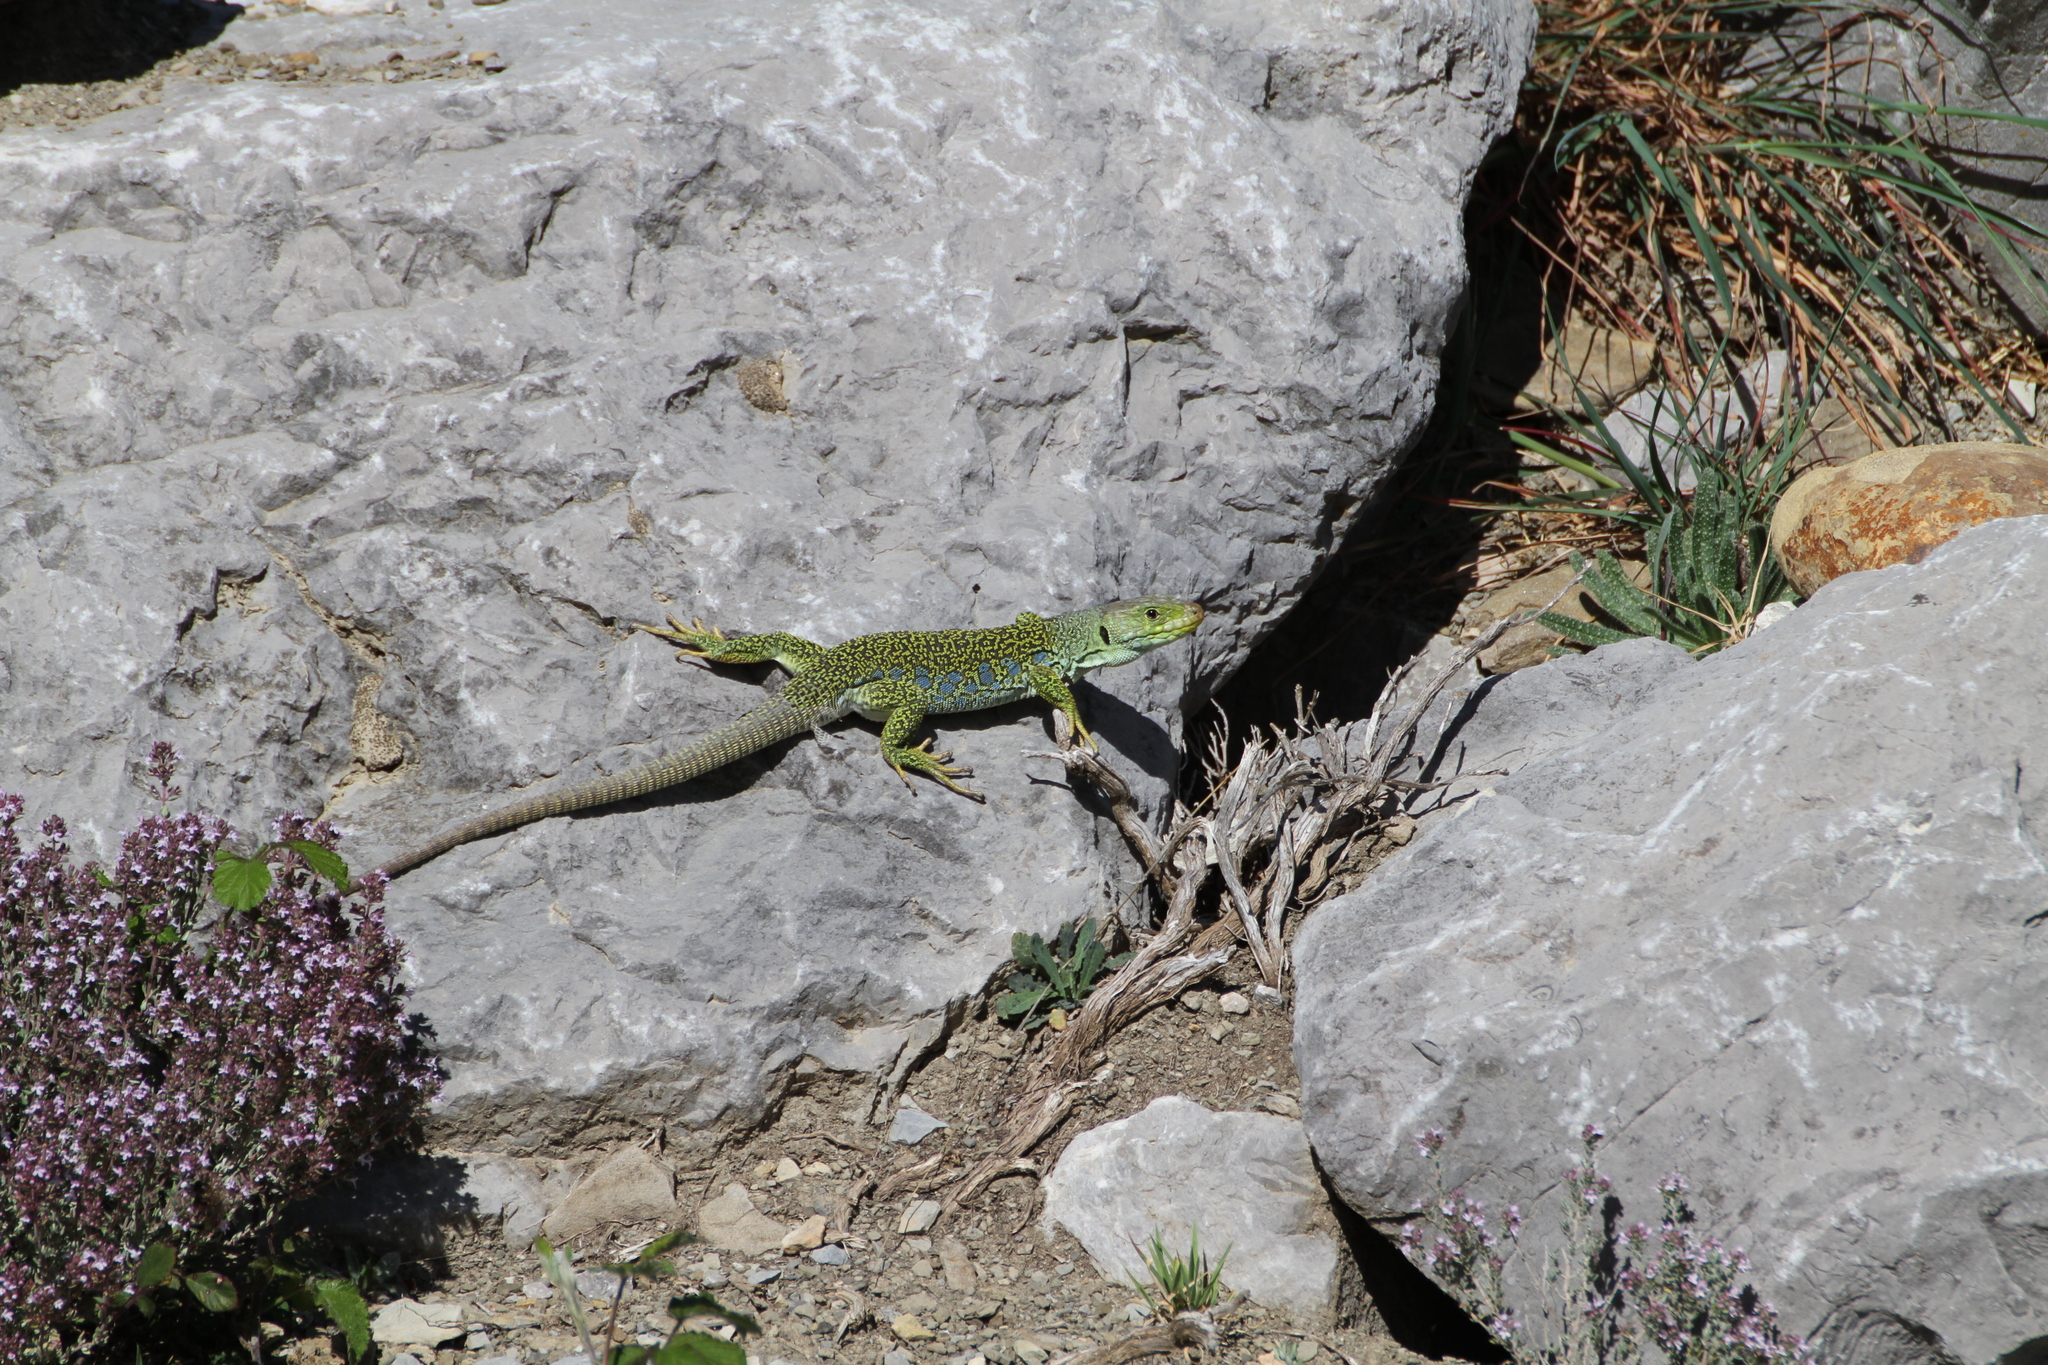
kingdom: Animalia
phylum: Chordata
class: Squamata
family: Lacertidae
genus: Timon
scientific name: Timon lepidus
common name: Ocellated lizard
